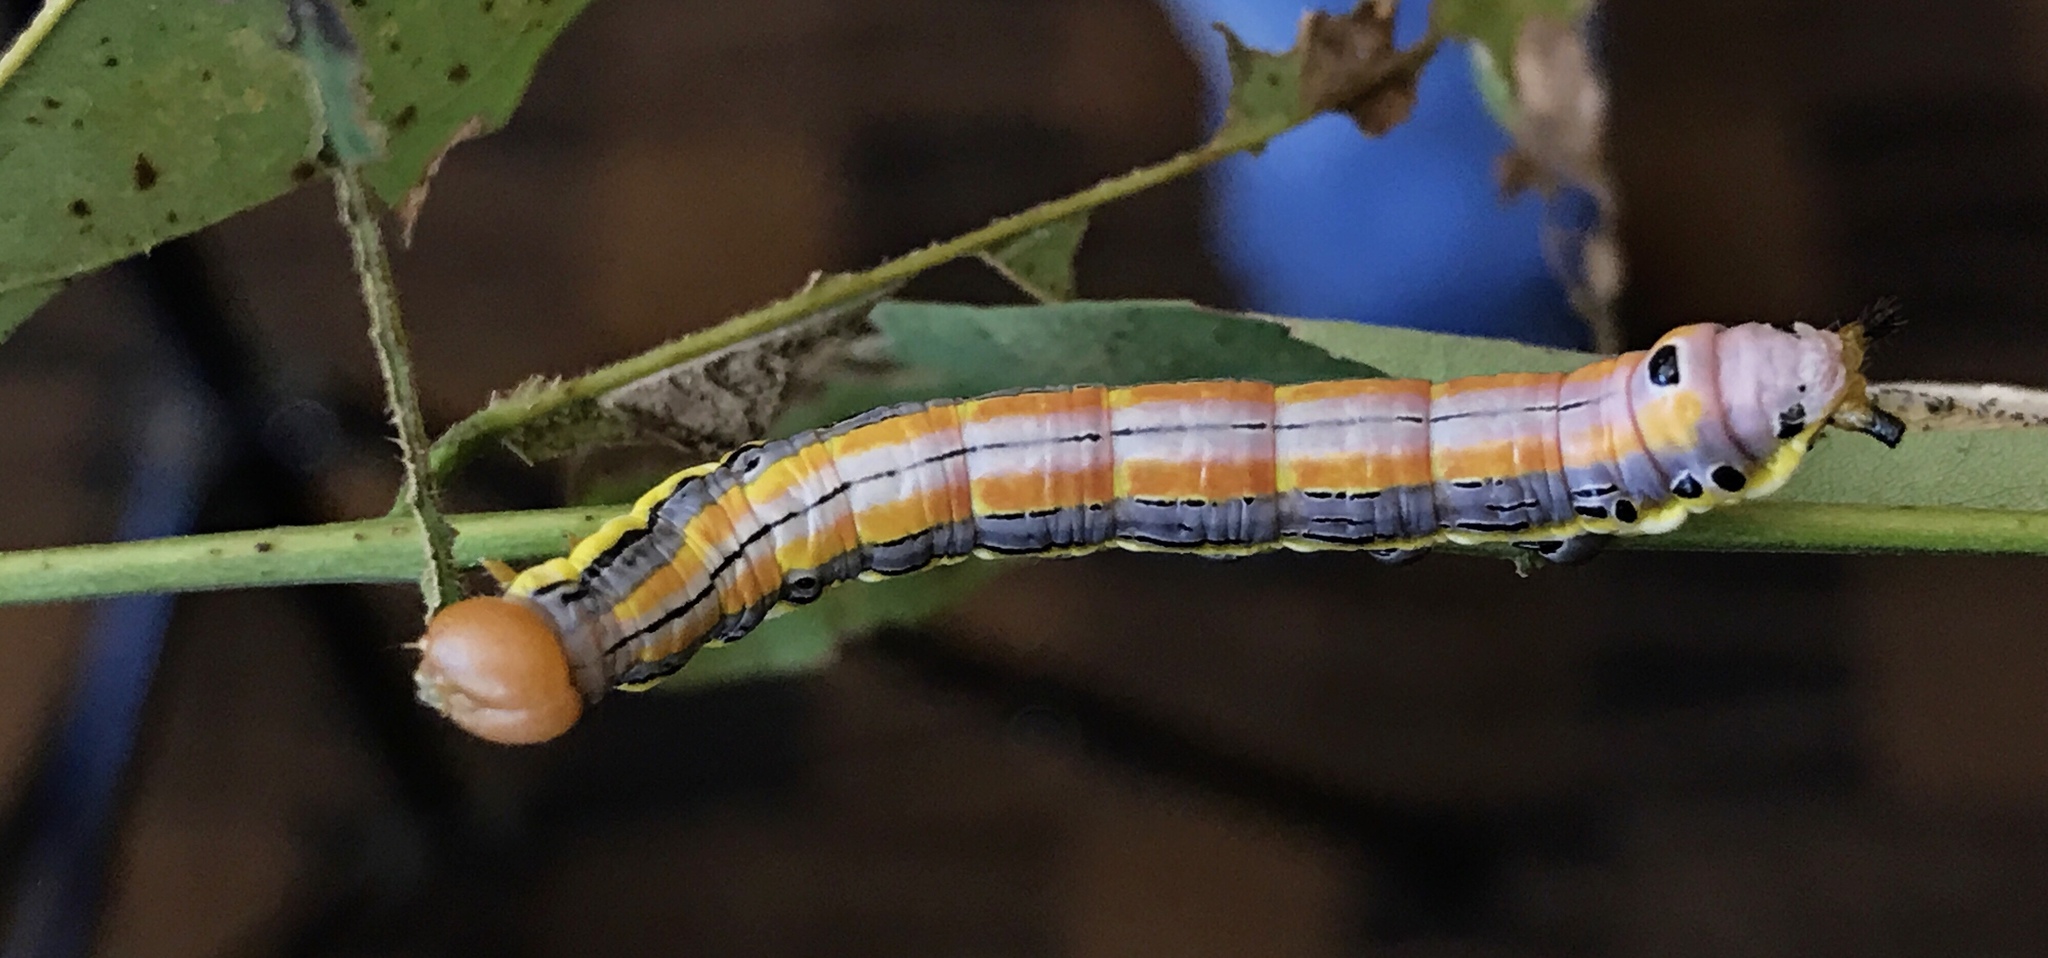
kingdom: Animalia
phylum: Arthropoda
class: Insecta
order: Lepidoptera
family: Notodontidae
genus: Dasylophia
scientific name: Dasylophia anguina
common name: Black-spotted prominent
